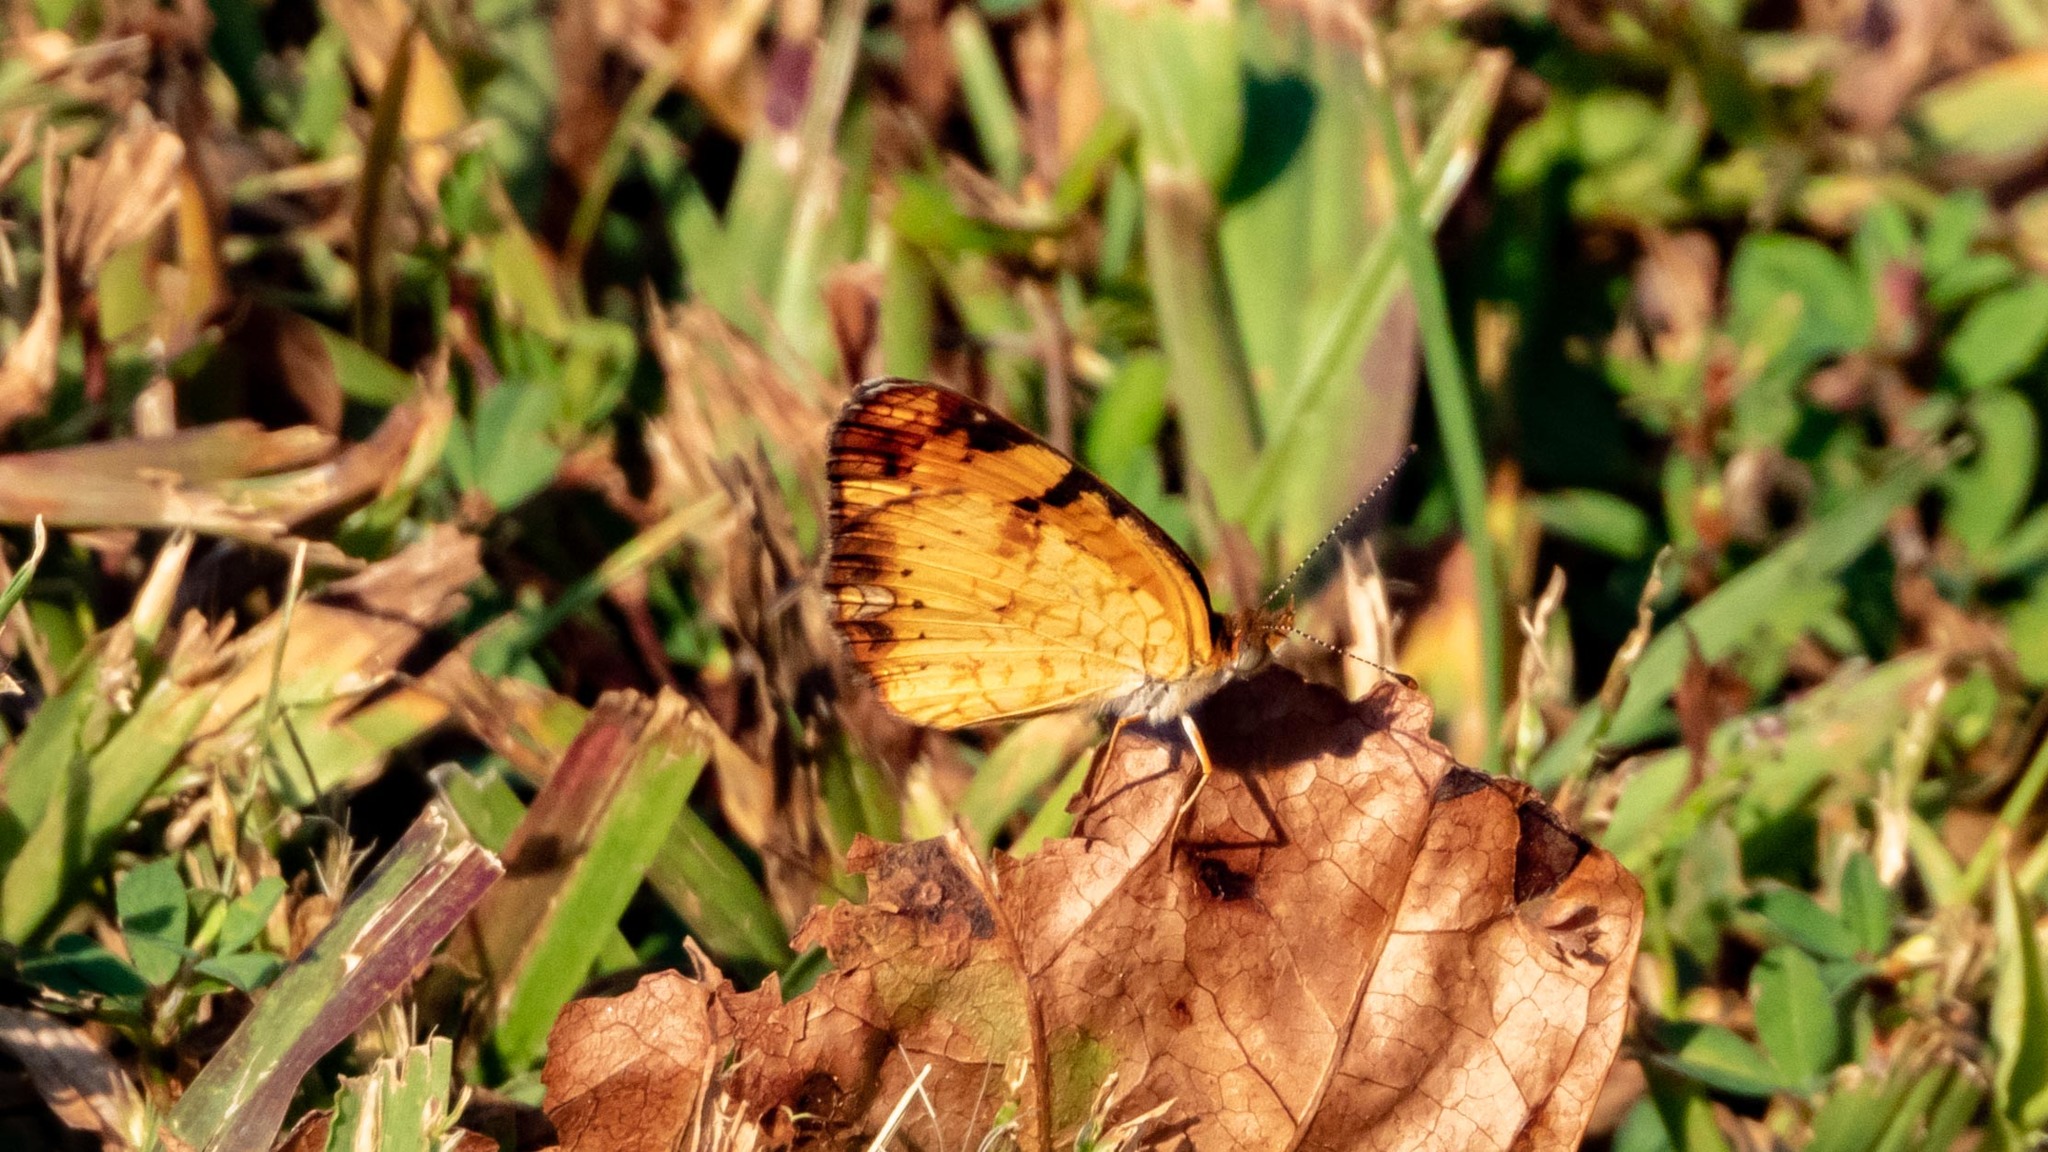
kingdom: Animalia
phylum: Arthropoda
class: Insecta
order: Lepidoptera
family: Nymphalidae
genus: Phyciodes
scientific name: Phyciodes tharos
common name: Pearl crescent
